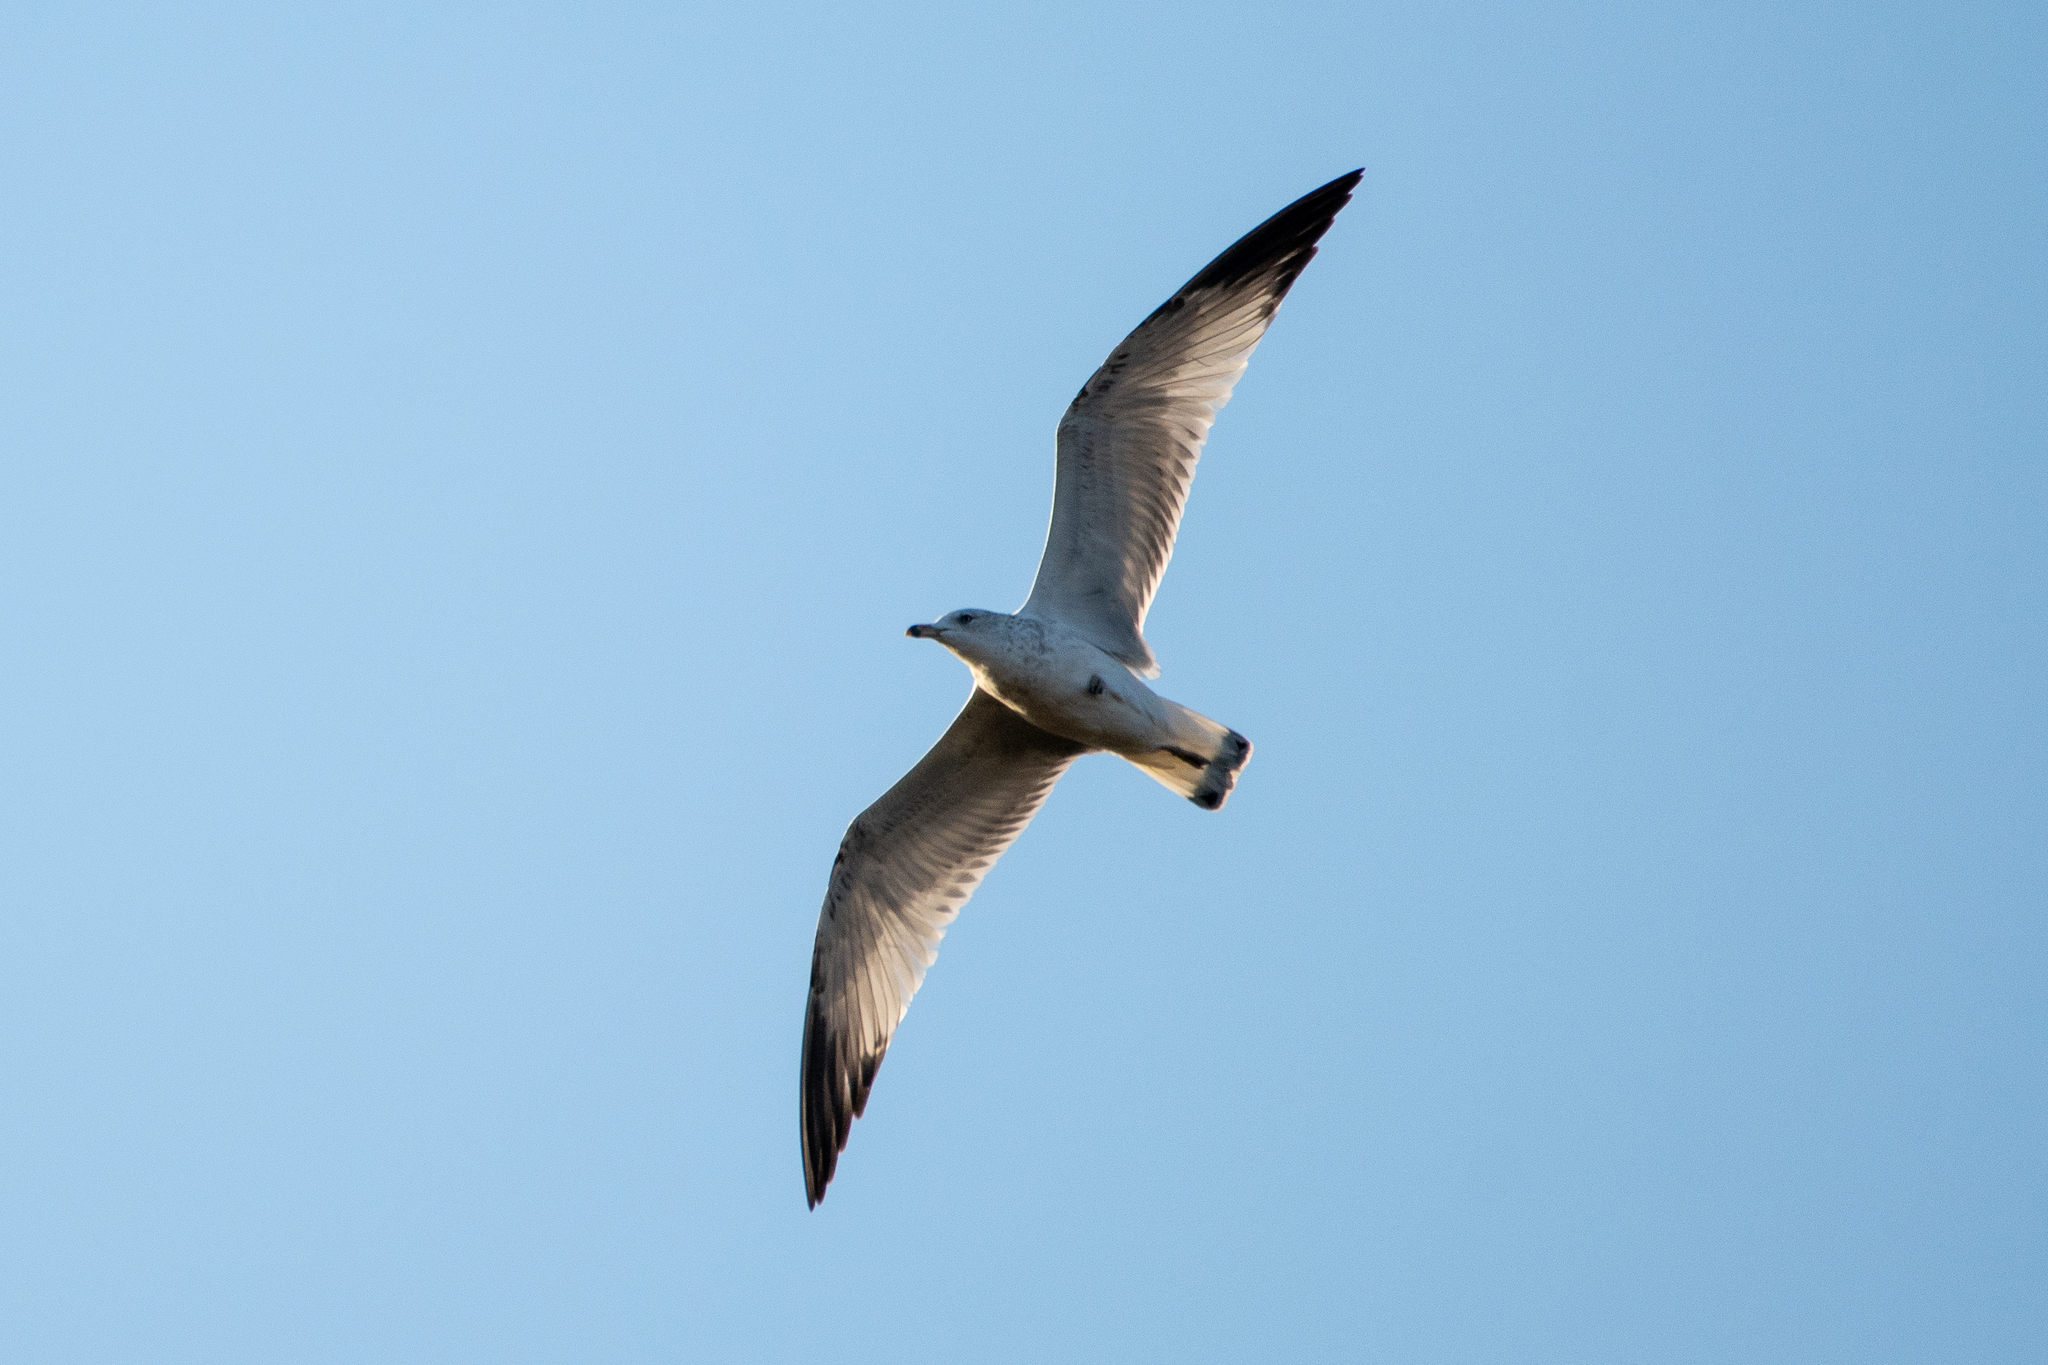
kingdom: Animalia
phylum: Chordata
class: Aves
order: Charadriiformes
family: Laridae
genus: Larus
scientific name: Larus delawarensis
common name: Ring-billed gull
